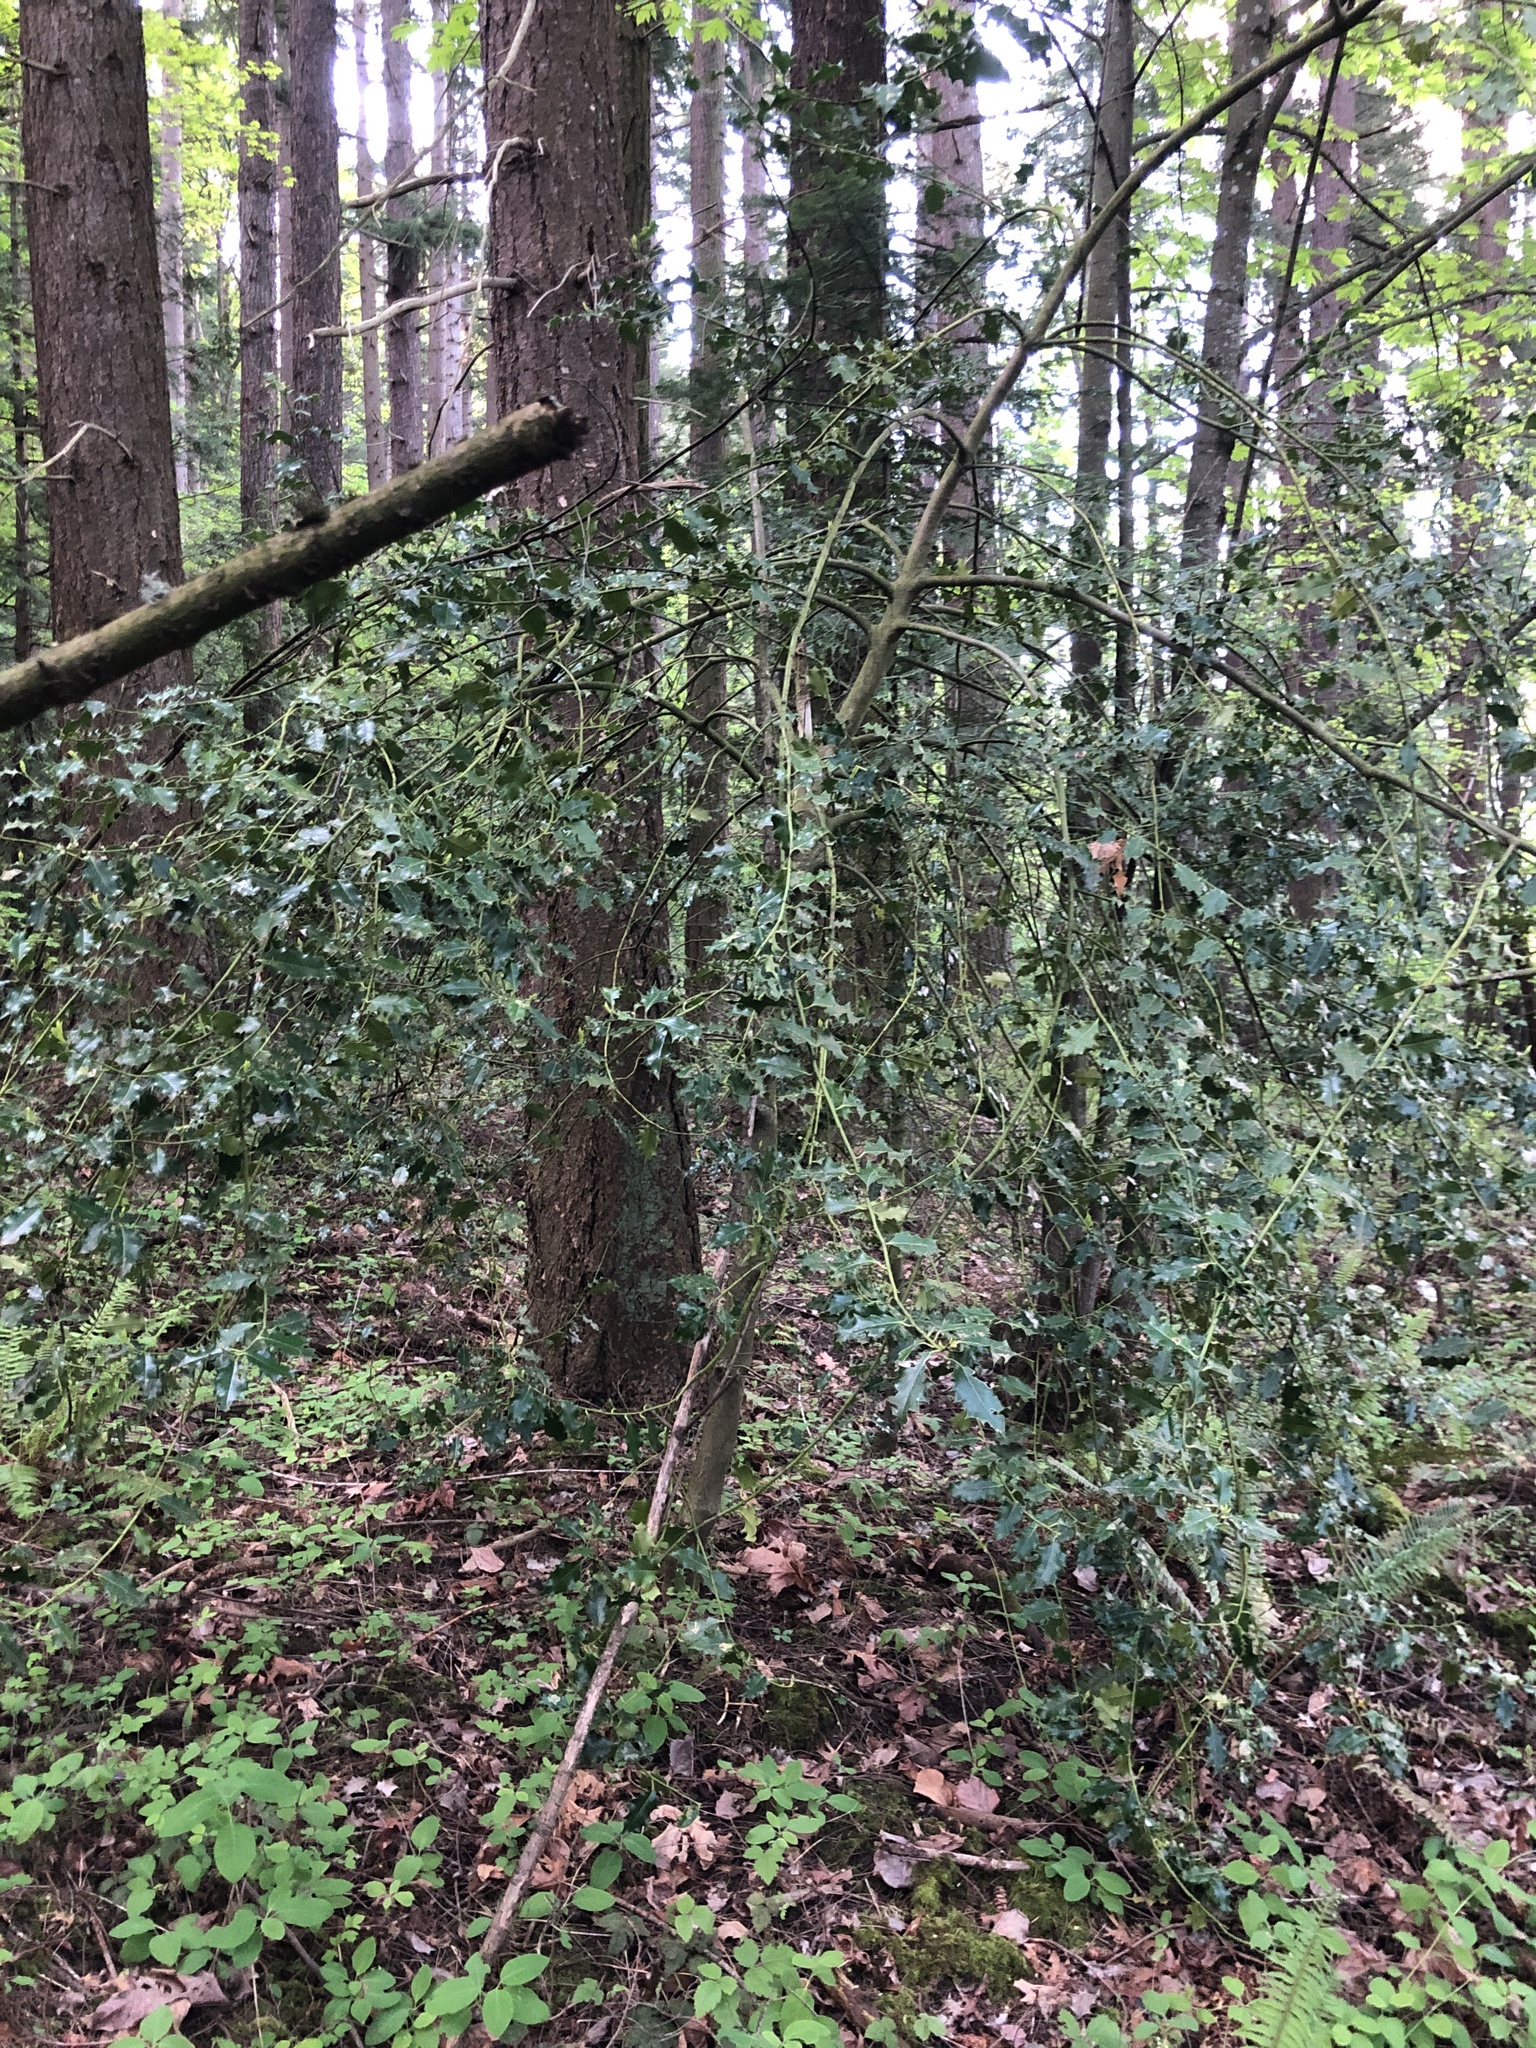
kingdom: Plantae
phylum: Tracheophyta
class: Magnoliopsida
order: Aquifoliales
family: Aquifoliaceae
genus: Ilex
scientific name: Ilex aquifolium
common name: English holly
